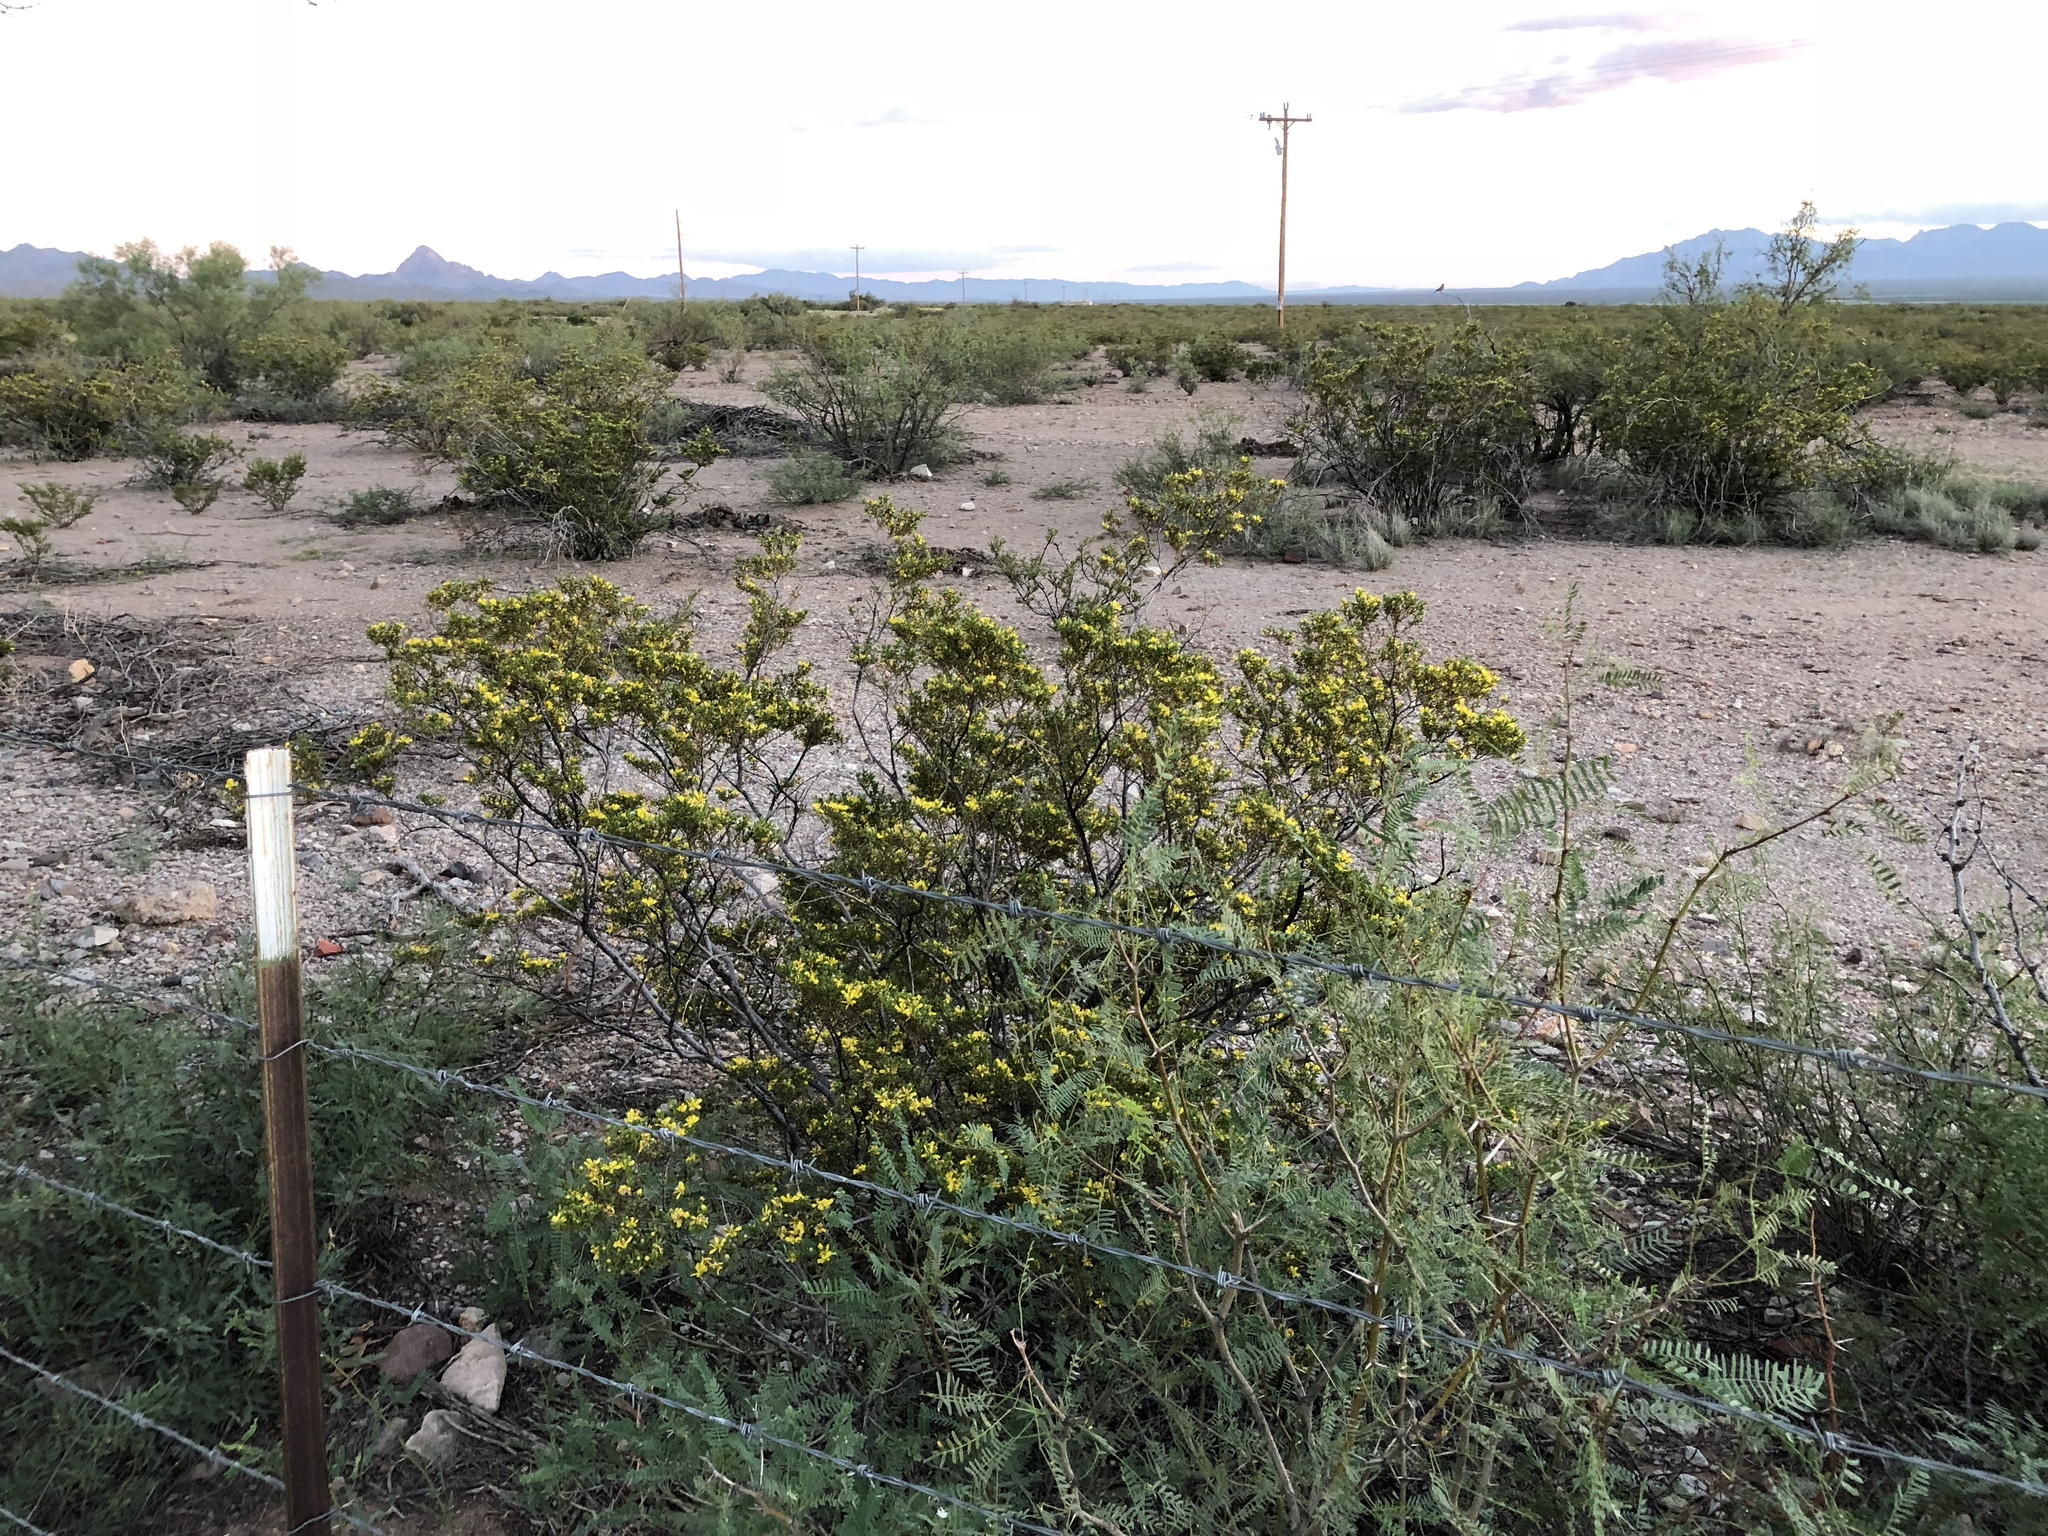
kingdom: Plantae
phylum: Tracheophyta
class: Magnoliopsida
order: Zygophyllales
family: Zygophyllaceae
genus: Larrea
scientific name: Larrea tridentata
